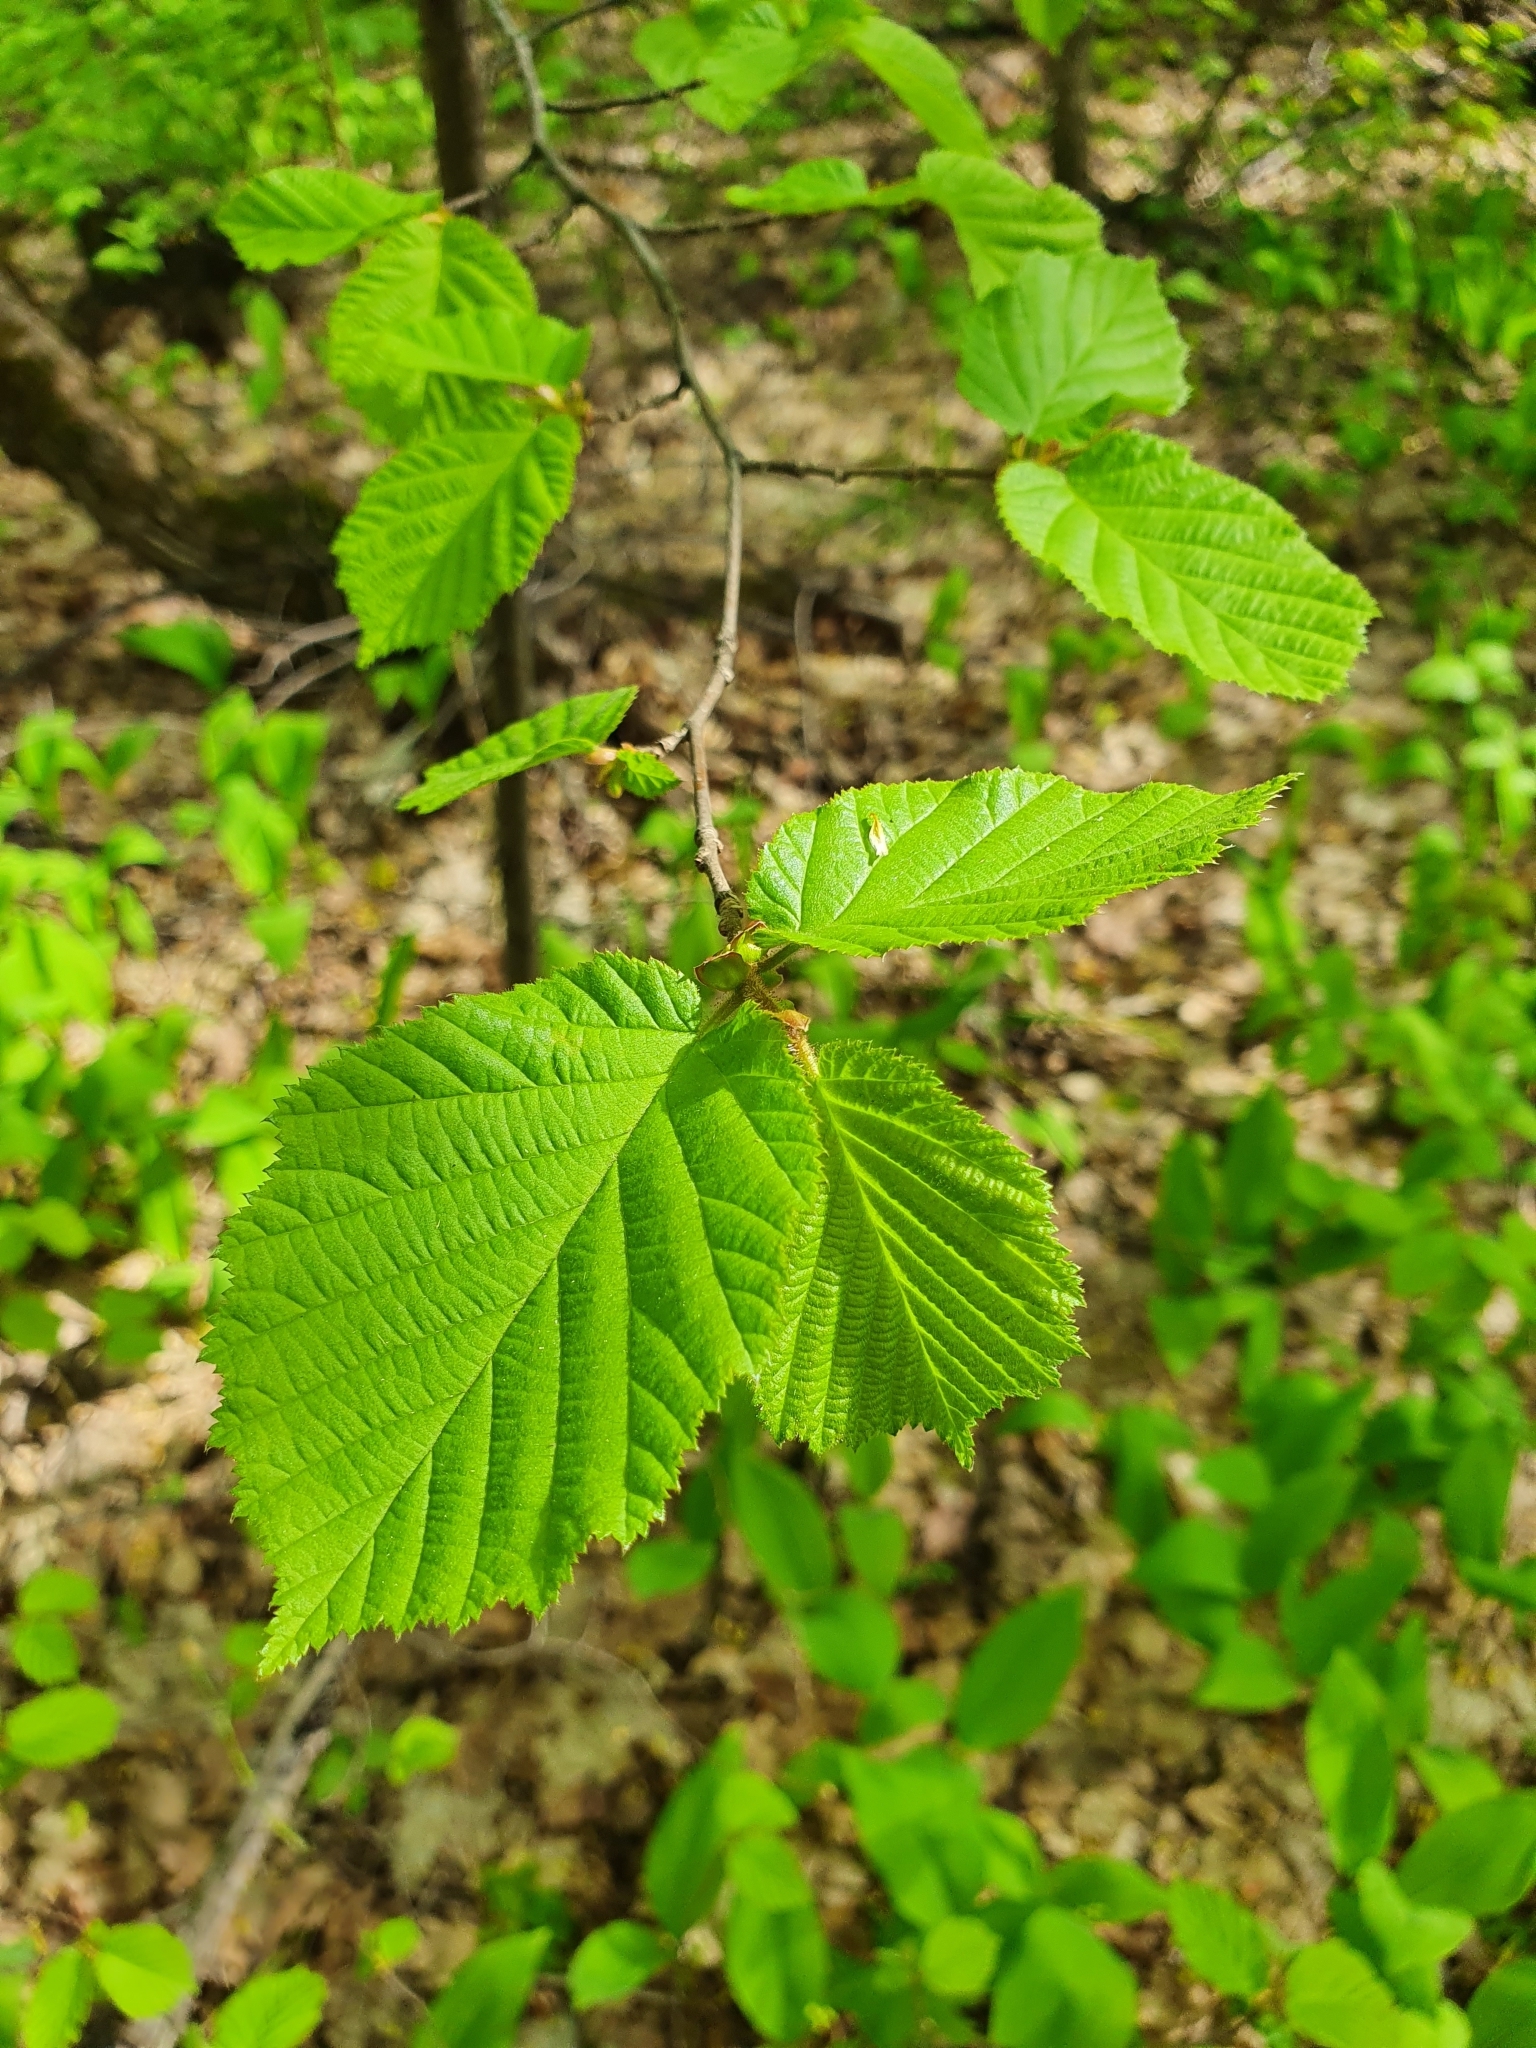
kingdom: Plantae
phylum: Tracheophyta
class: Magnoliopsida
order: Fagales
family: Betulaceae
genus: Corylus
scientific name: Corylus avellana
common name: European hazel
